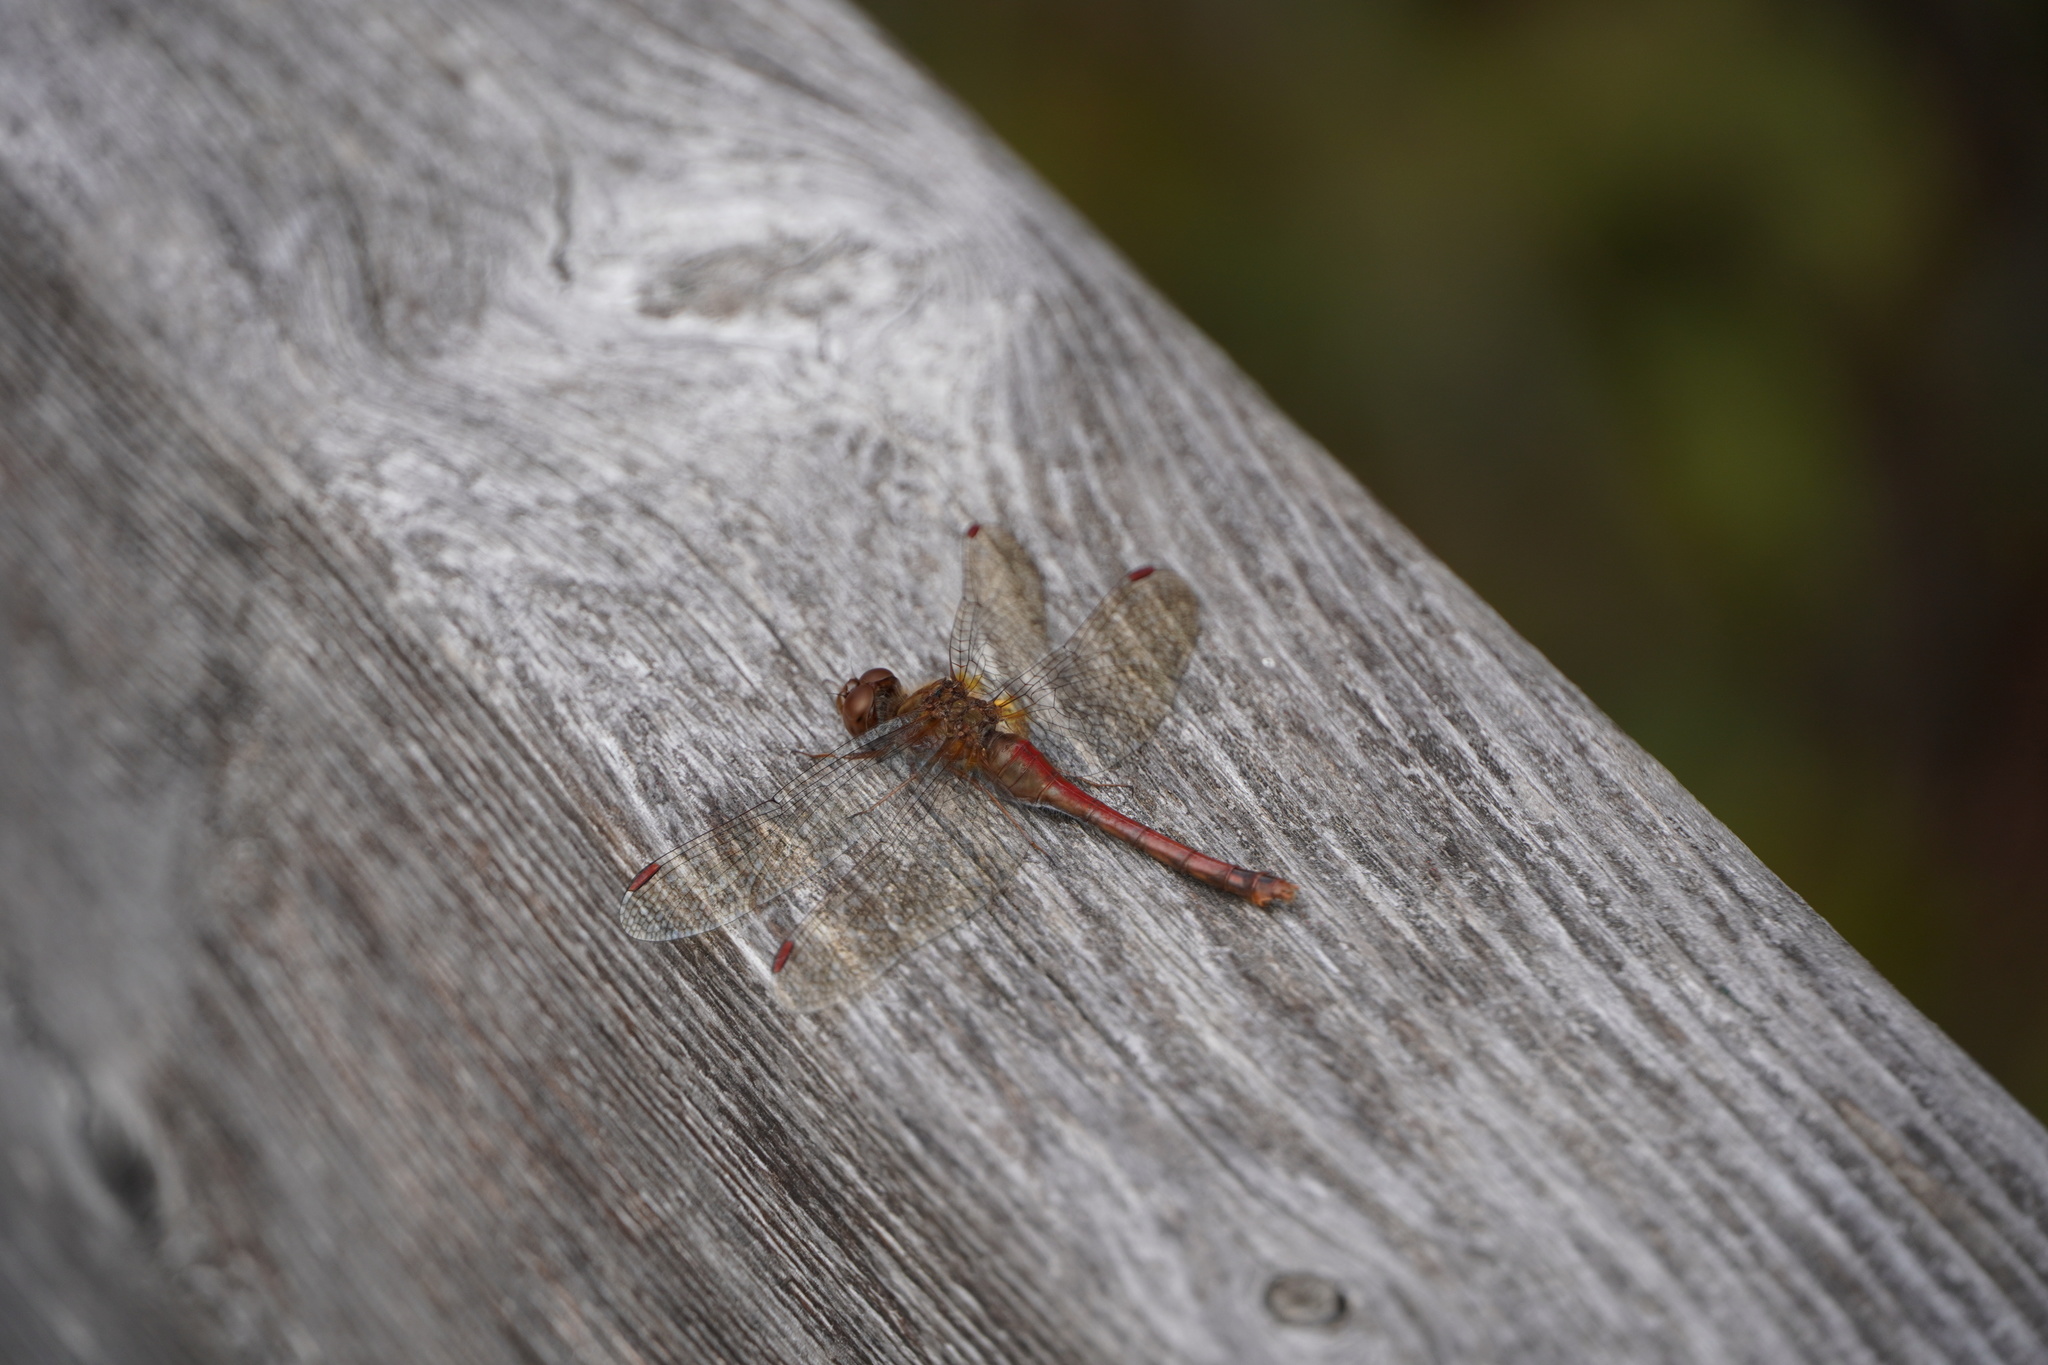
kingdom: Animalia
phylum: Arthropoda
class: Insecta
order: Odonata
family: Libellulidae
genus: Sympetrum
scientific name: Sympetrum vicinum
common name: Autumn meadowhawk
